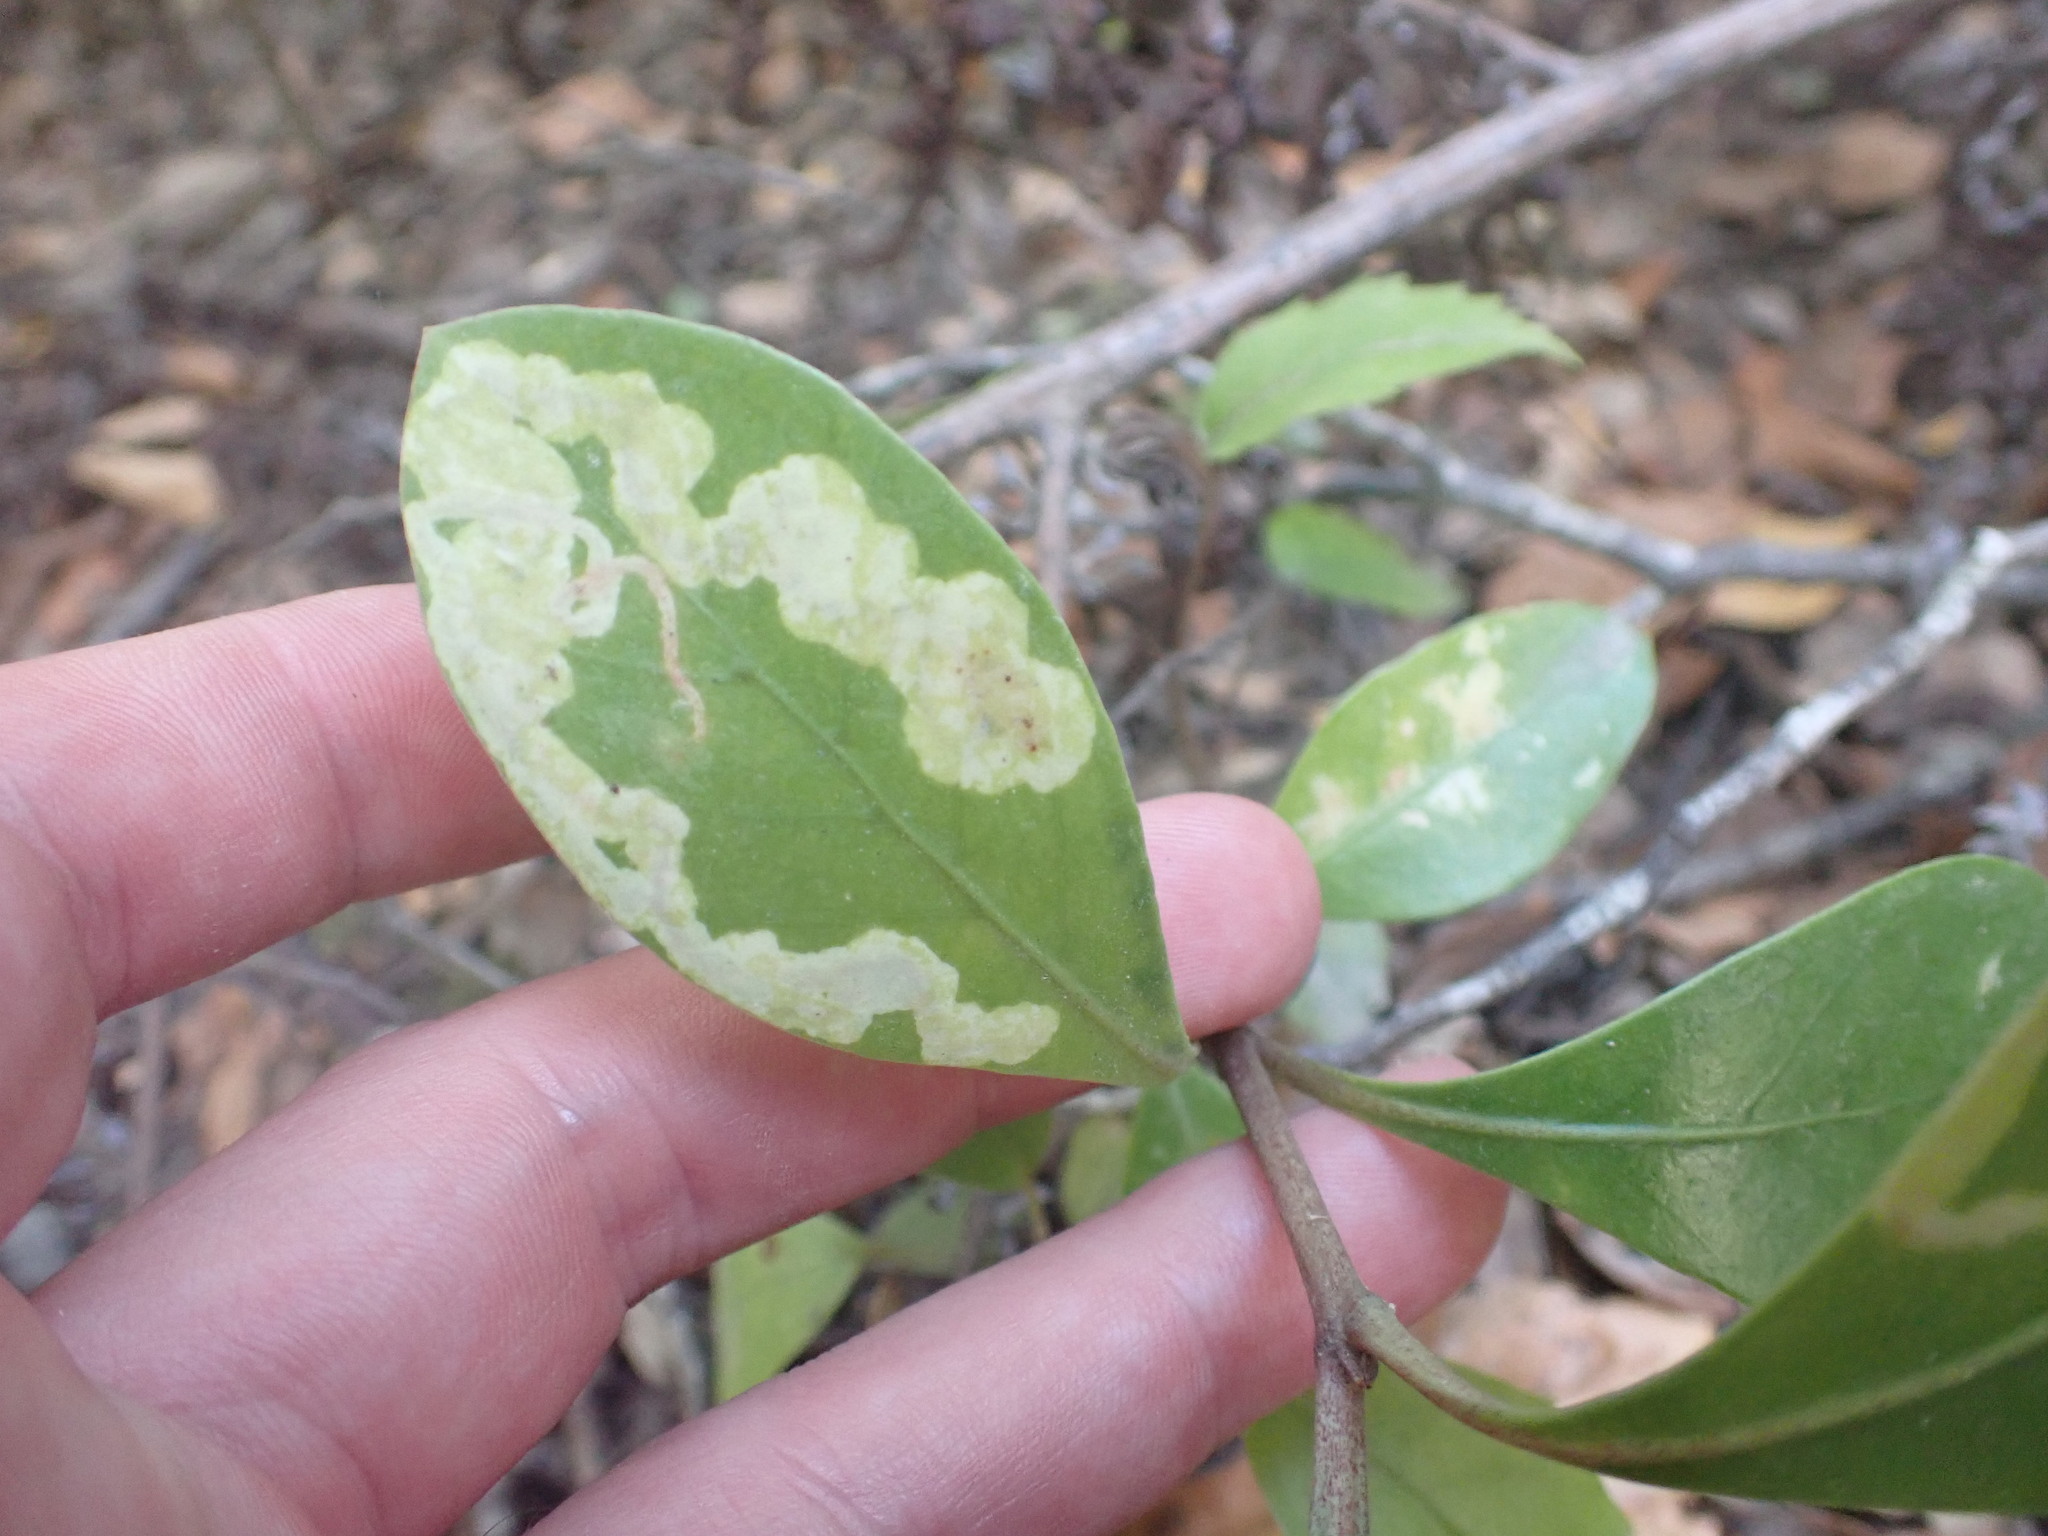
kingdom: Animalia
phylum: Arthropoda
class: Insecta
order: Lepidoptera
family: Gracillariidae
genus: Corythoxestis
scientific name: Corythoxestis zorionella
